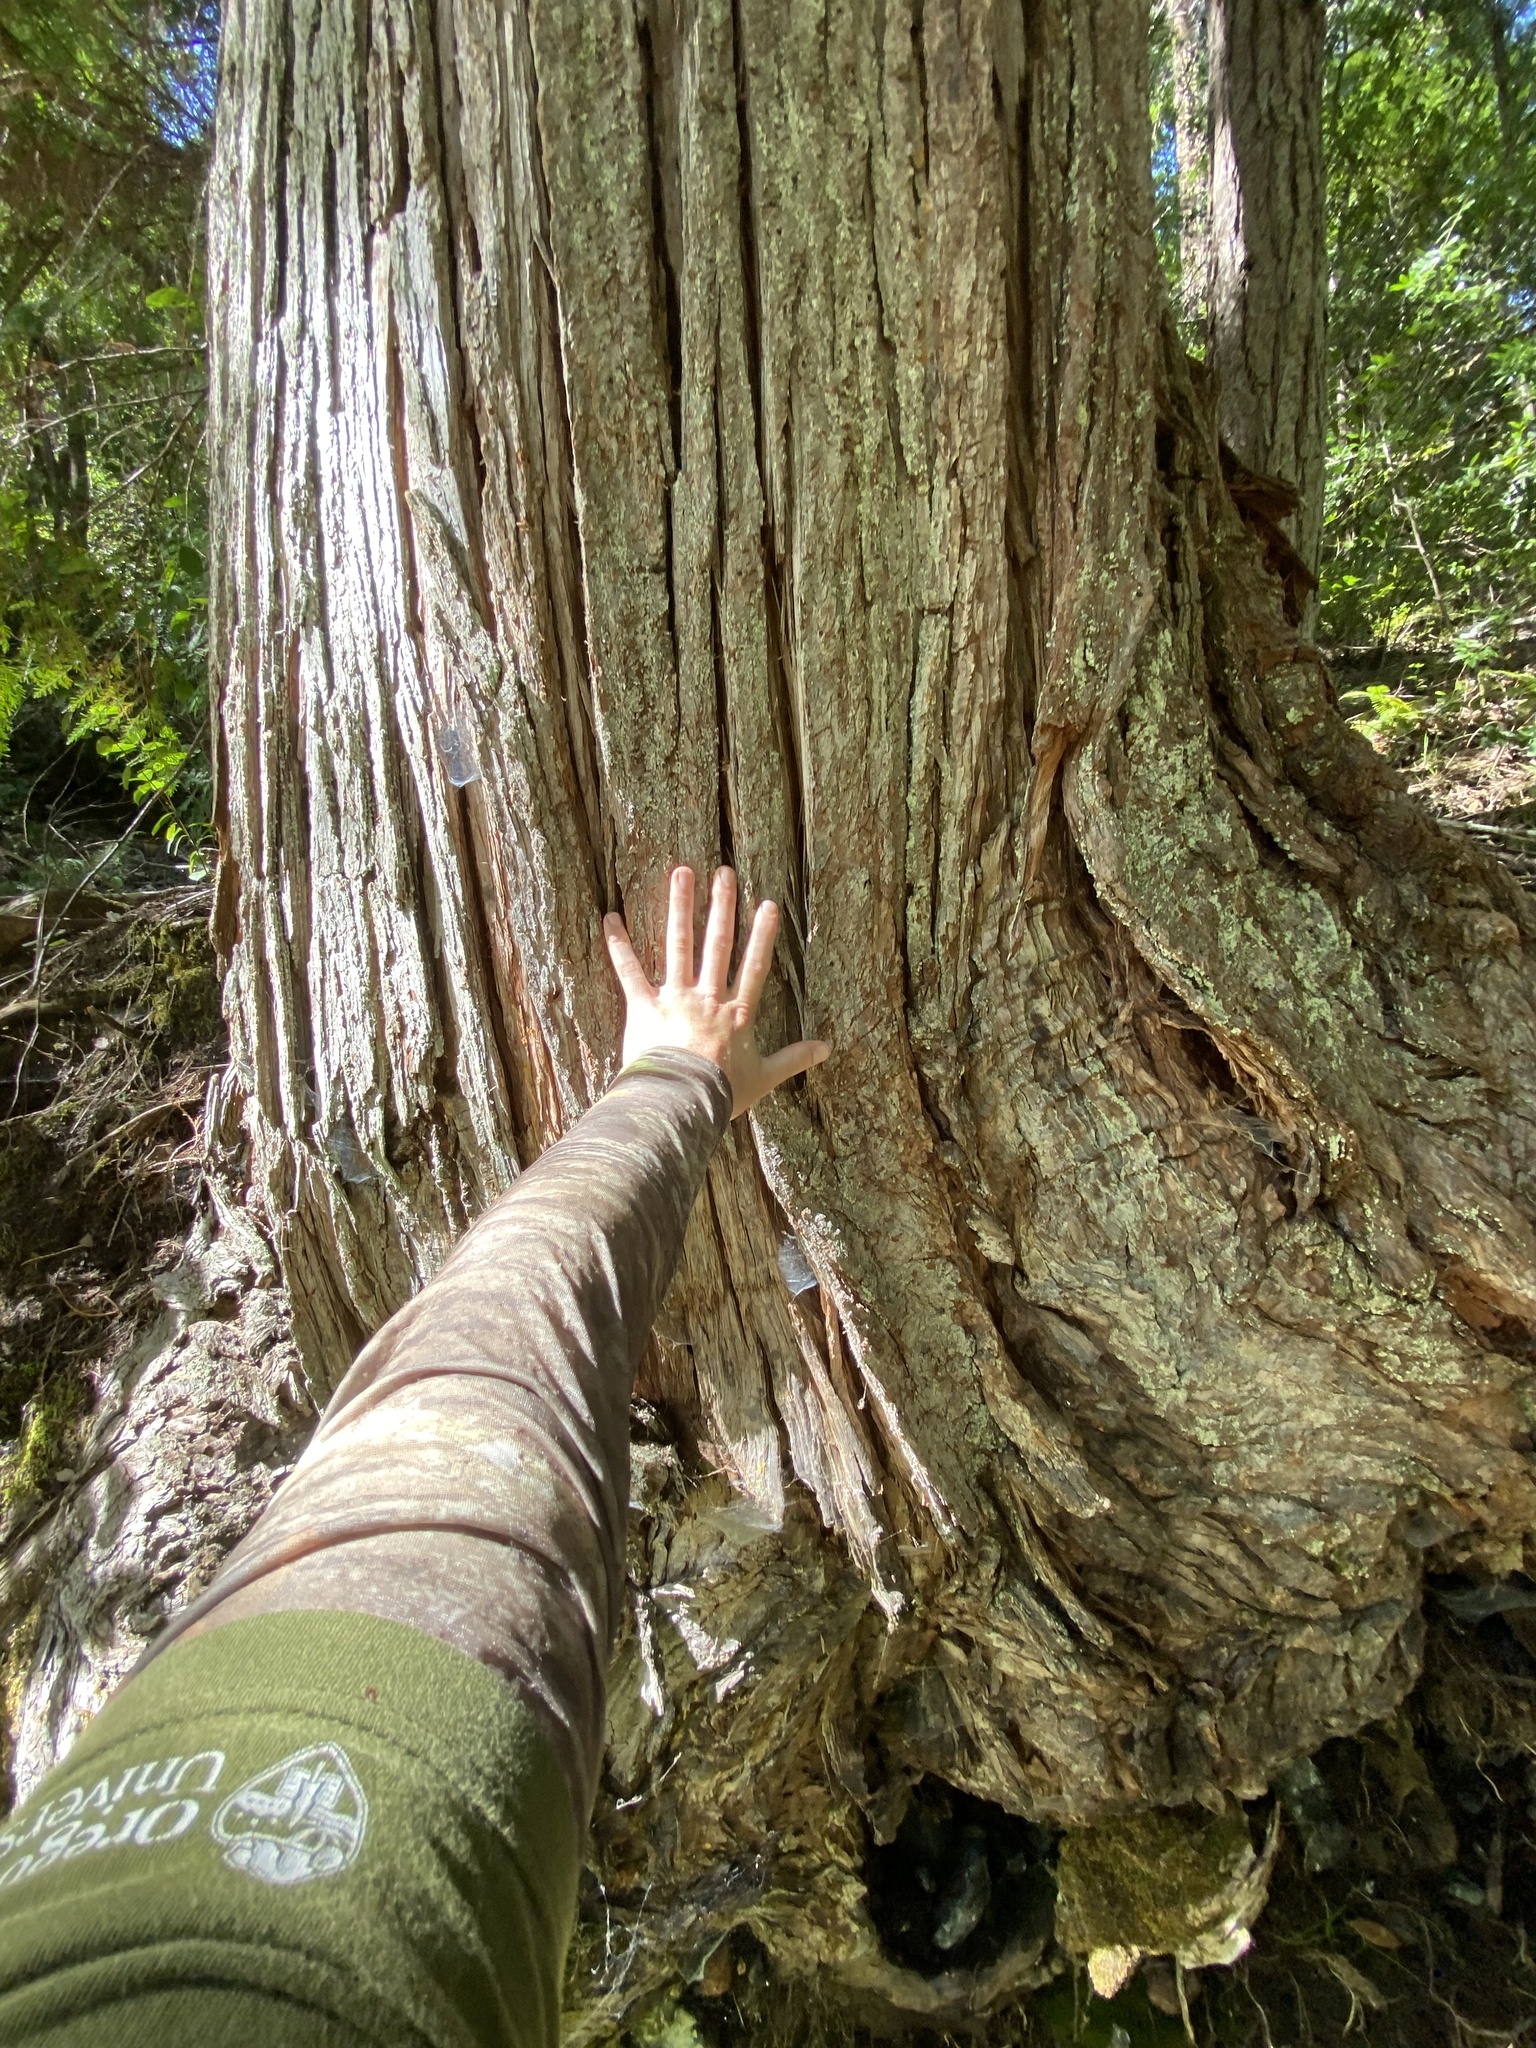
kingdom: Plantae
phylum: Tracheophyta
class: Pinopsida
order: Pinales
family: Cupressaceae
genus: Chamaecyparis
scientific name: Chamaecyparis lawsoniana
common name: Lawson's cypress
